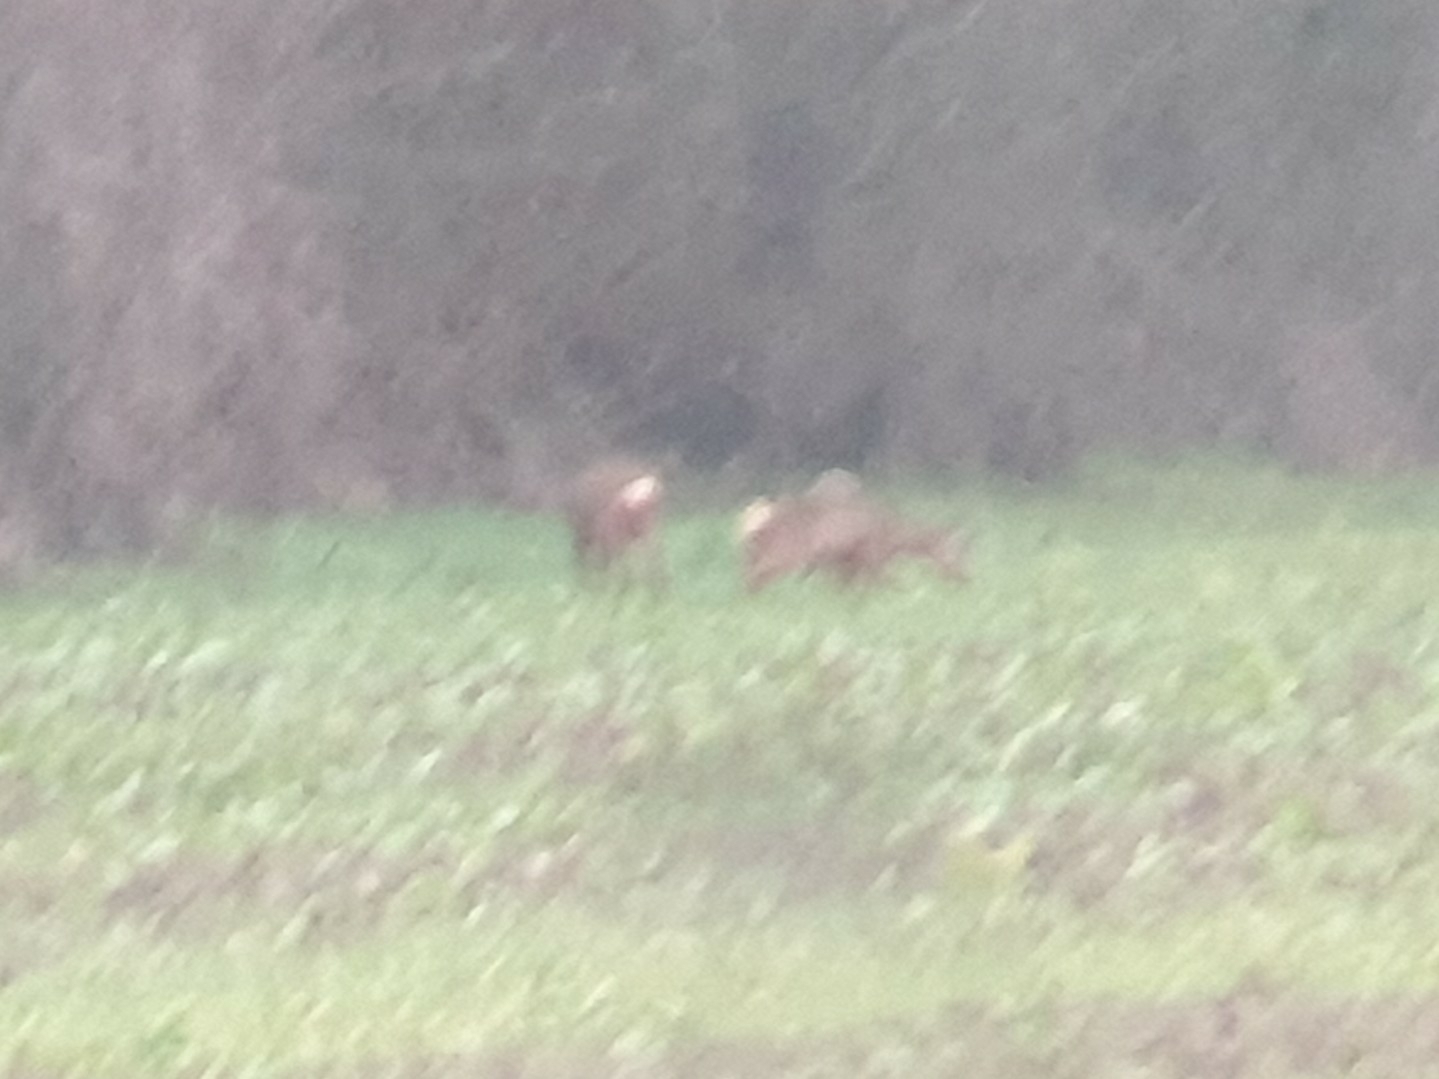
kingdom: Animalia
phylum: Chordata
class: Mammalia
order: Artiodactyla
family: Cervidae
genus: Capreolus
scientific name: Capreolus capreolus
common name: Western roe deer
